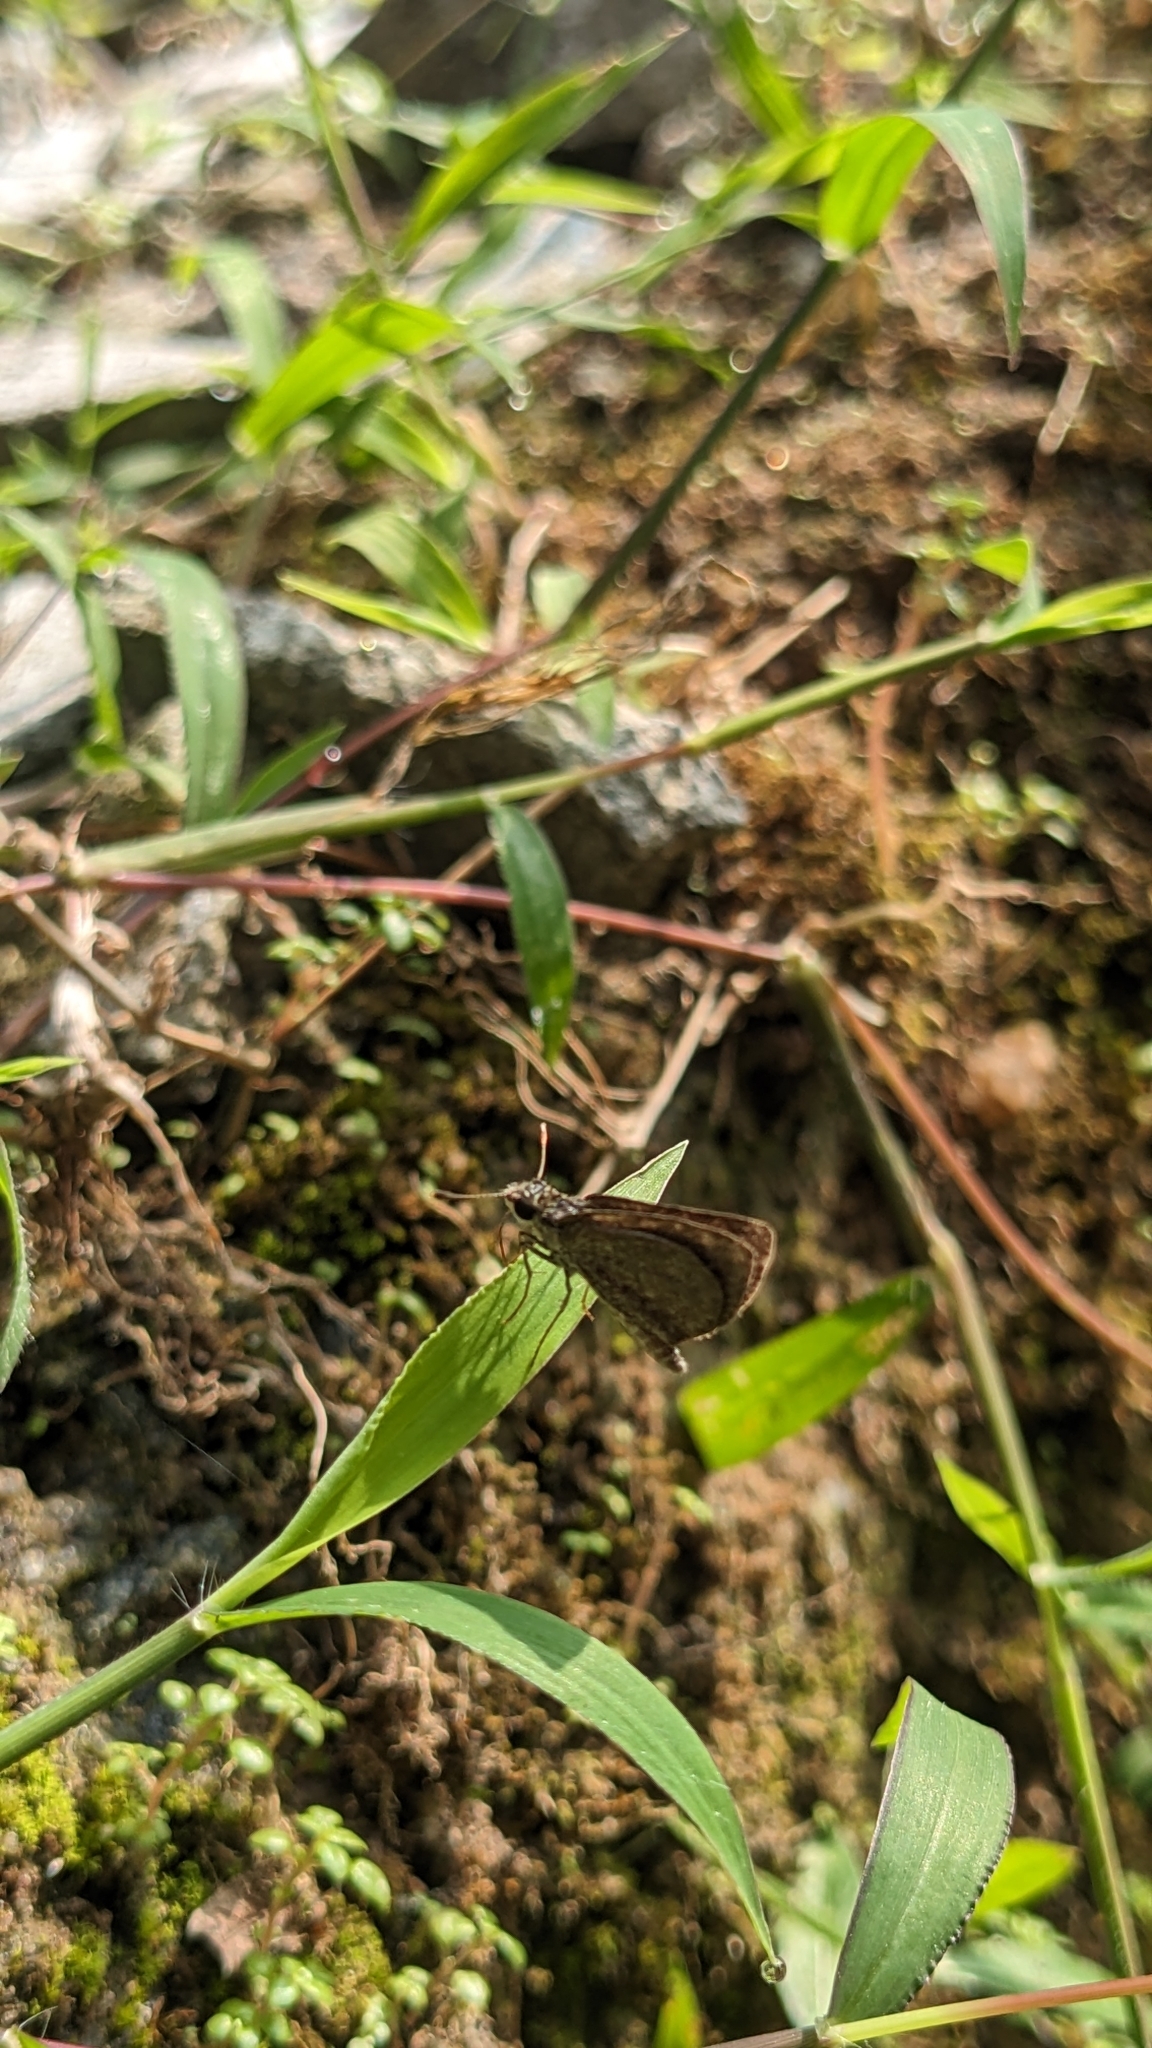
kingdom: Animalia
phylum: Arthropoda
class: Insecta
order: Lepidoptera
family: Hesperiidae
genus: Aeromachus
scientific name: Aeromachus pygmaeus
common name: Pygmy scrub hopper
